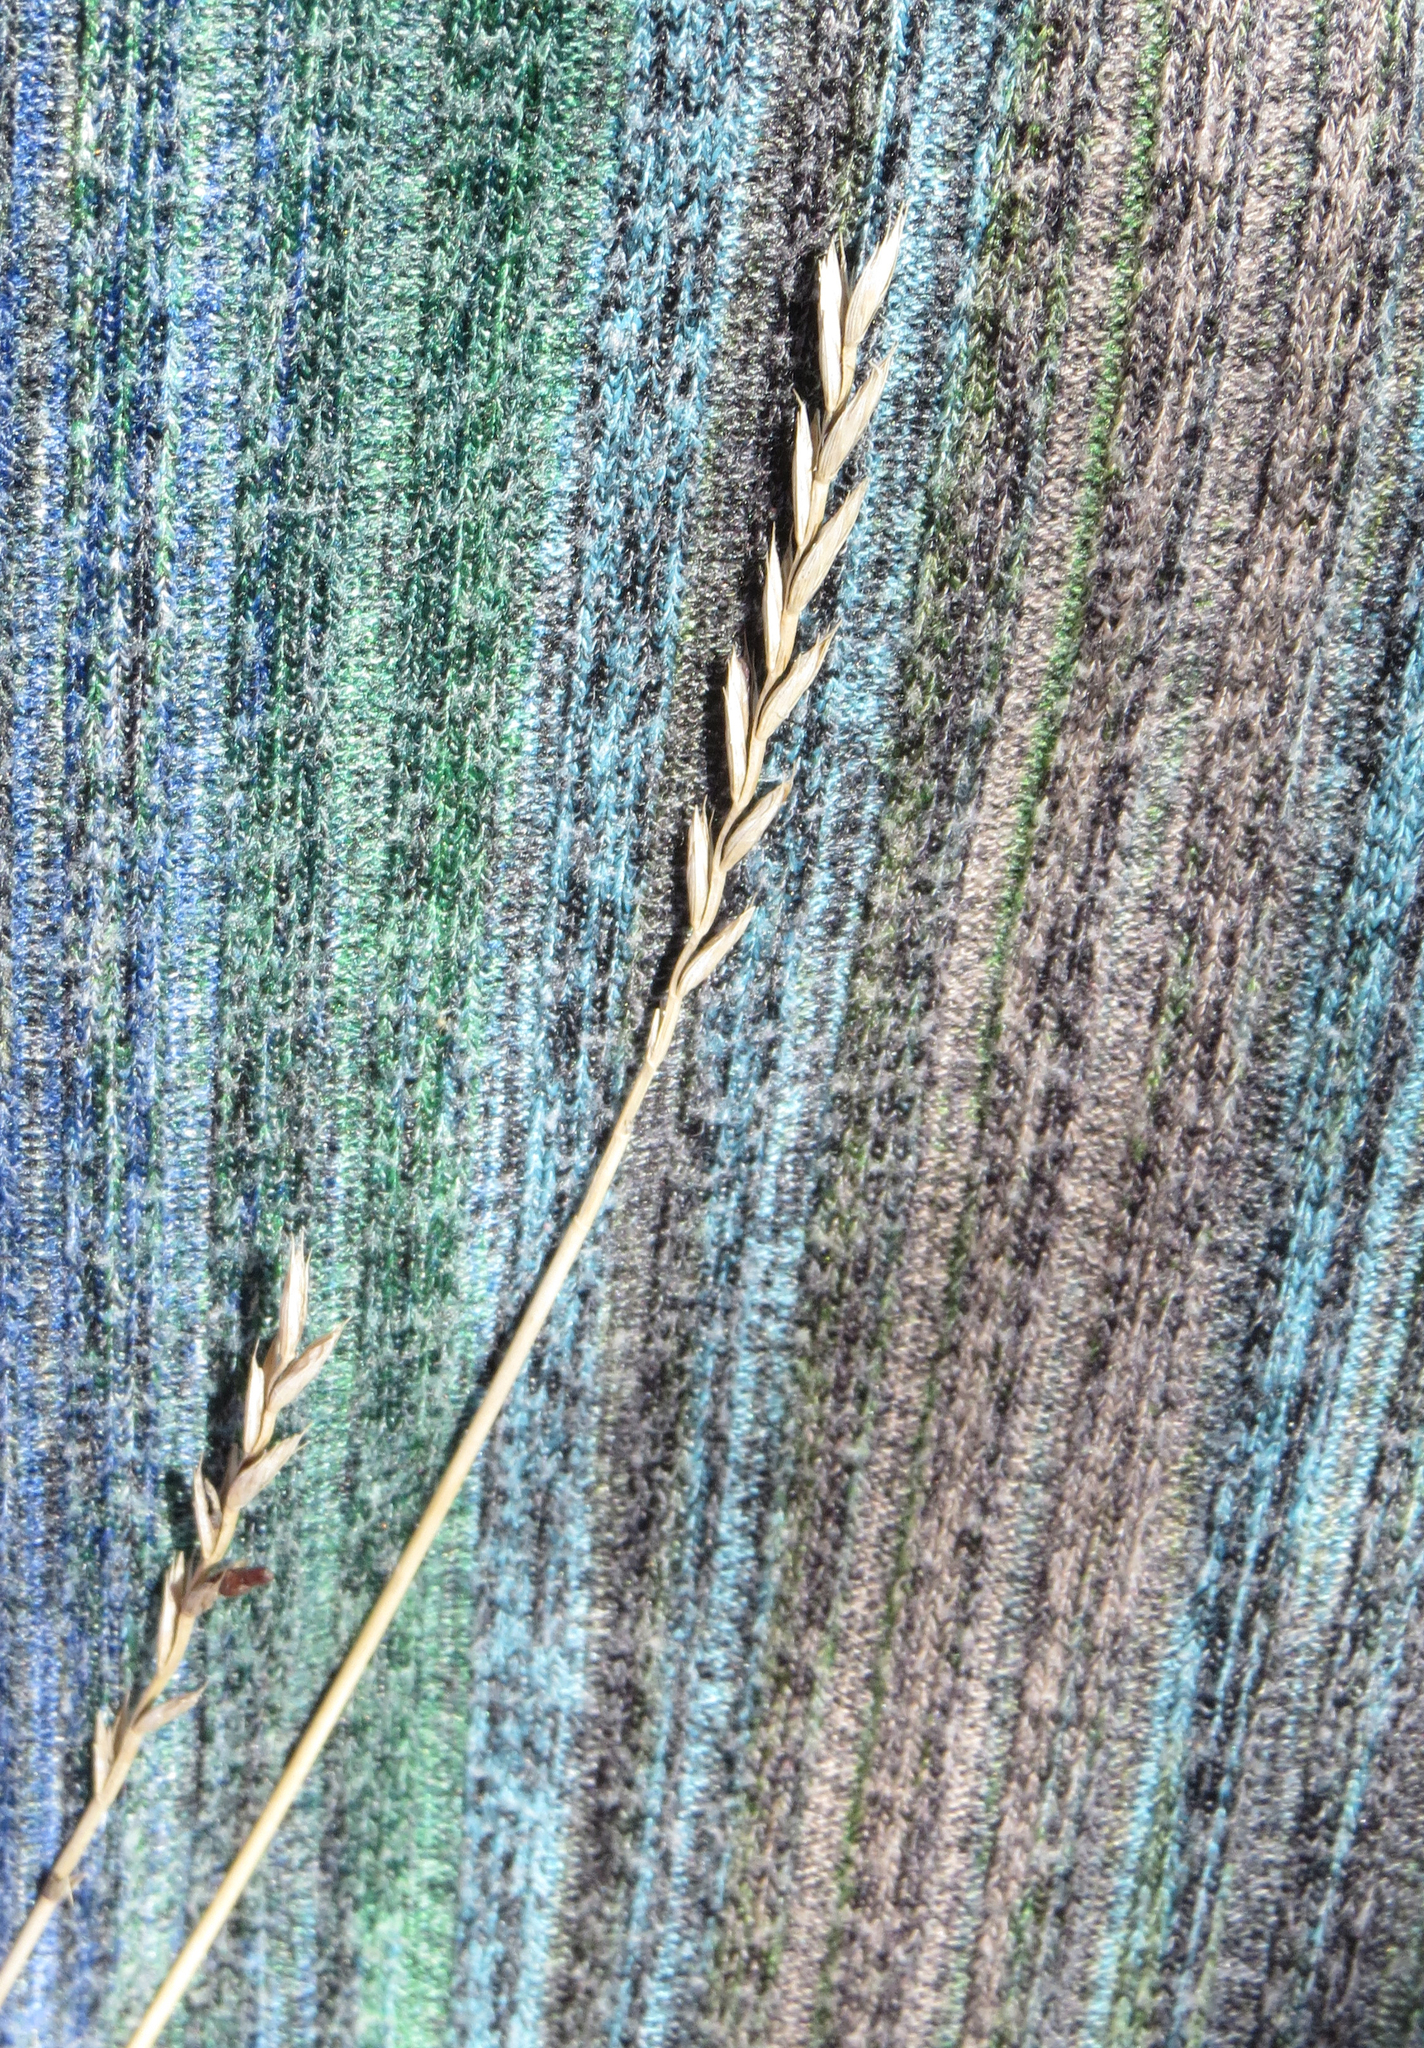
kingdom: Plantae
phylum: Tracheophyta
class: Liliopsida
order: Poales
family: Poaceae
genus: Elymus
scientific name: Elymus repens
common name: Quackgrass
